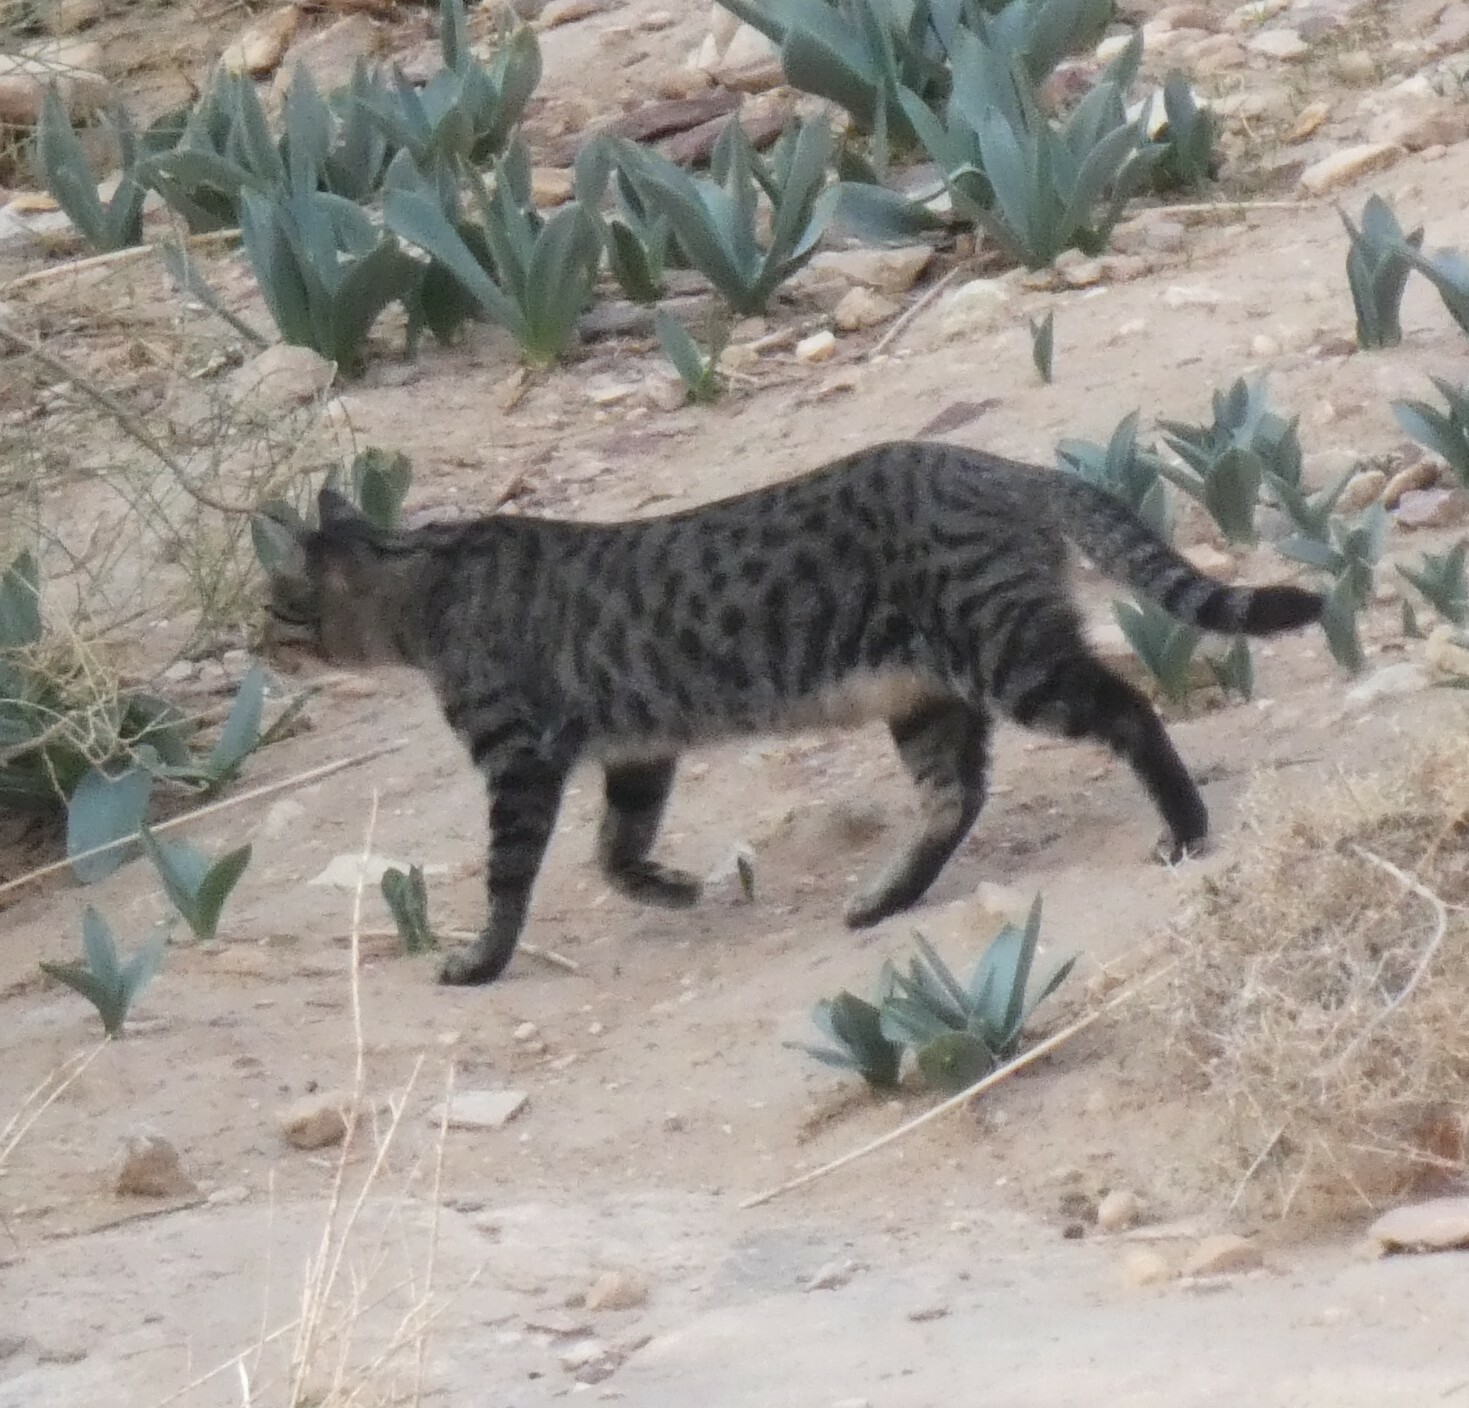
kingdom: Animalia
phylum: Chordata
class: Mammalia
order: Carnivora
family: Felidae
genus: Felis
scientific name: Felis catus
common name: Domestic cat
